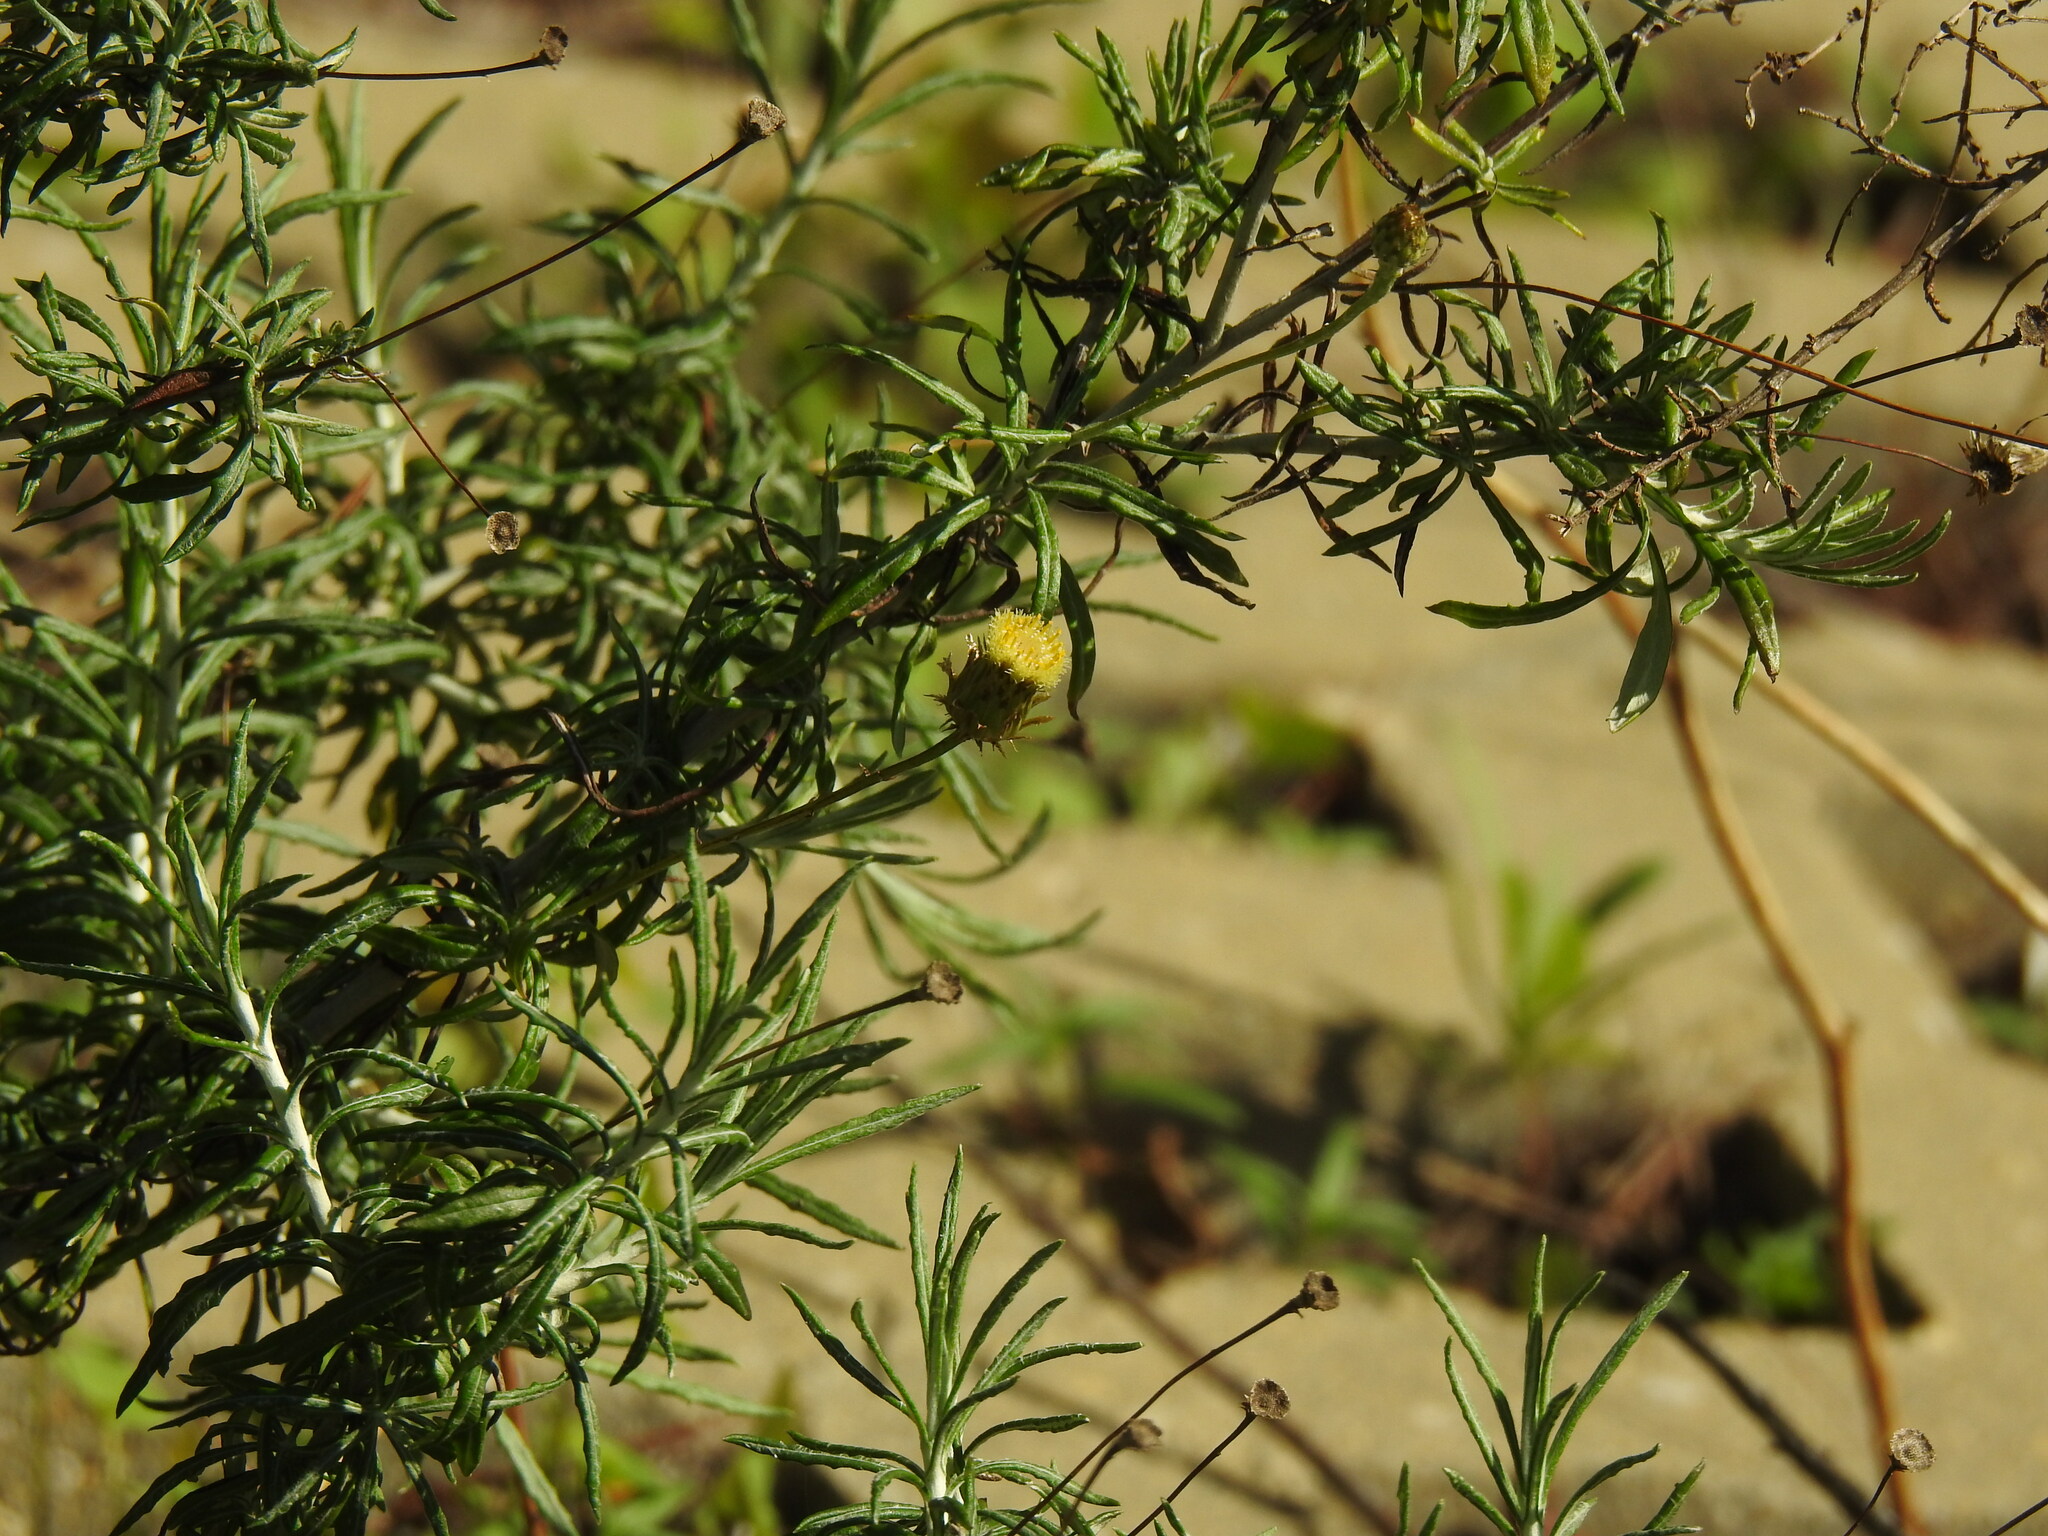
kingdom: Plantae
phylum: Tracheophyta
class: Magnoliopsida
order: Asterales
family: Asteraceae
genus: Phagnalon
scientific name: Phagnalon saxatile
